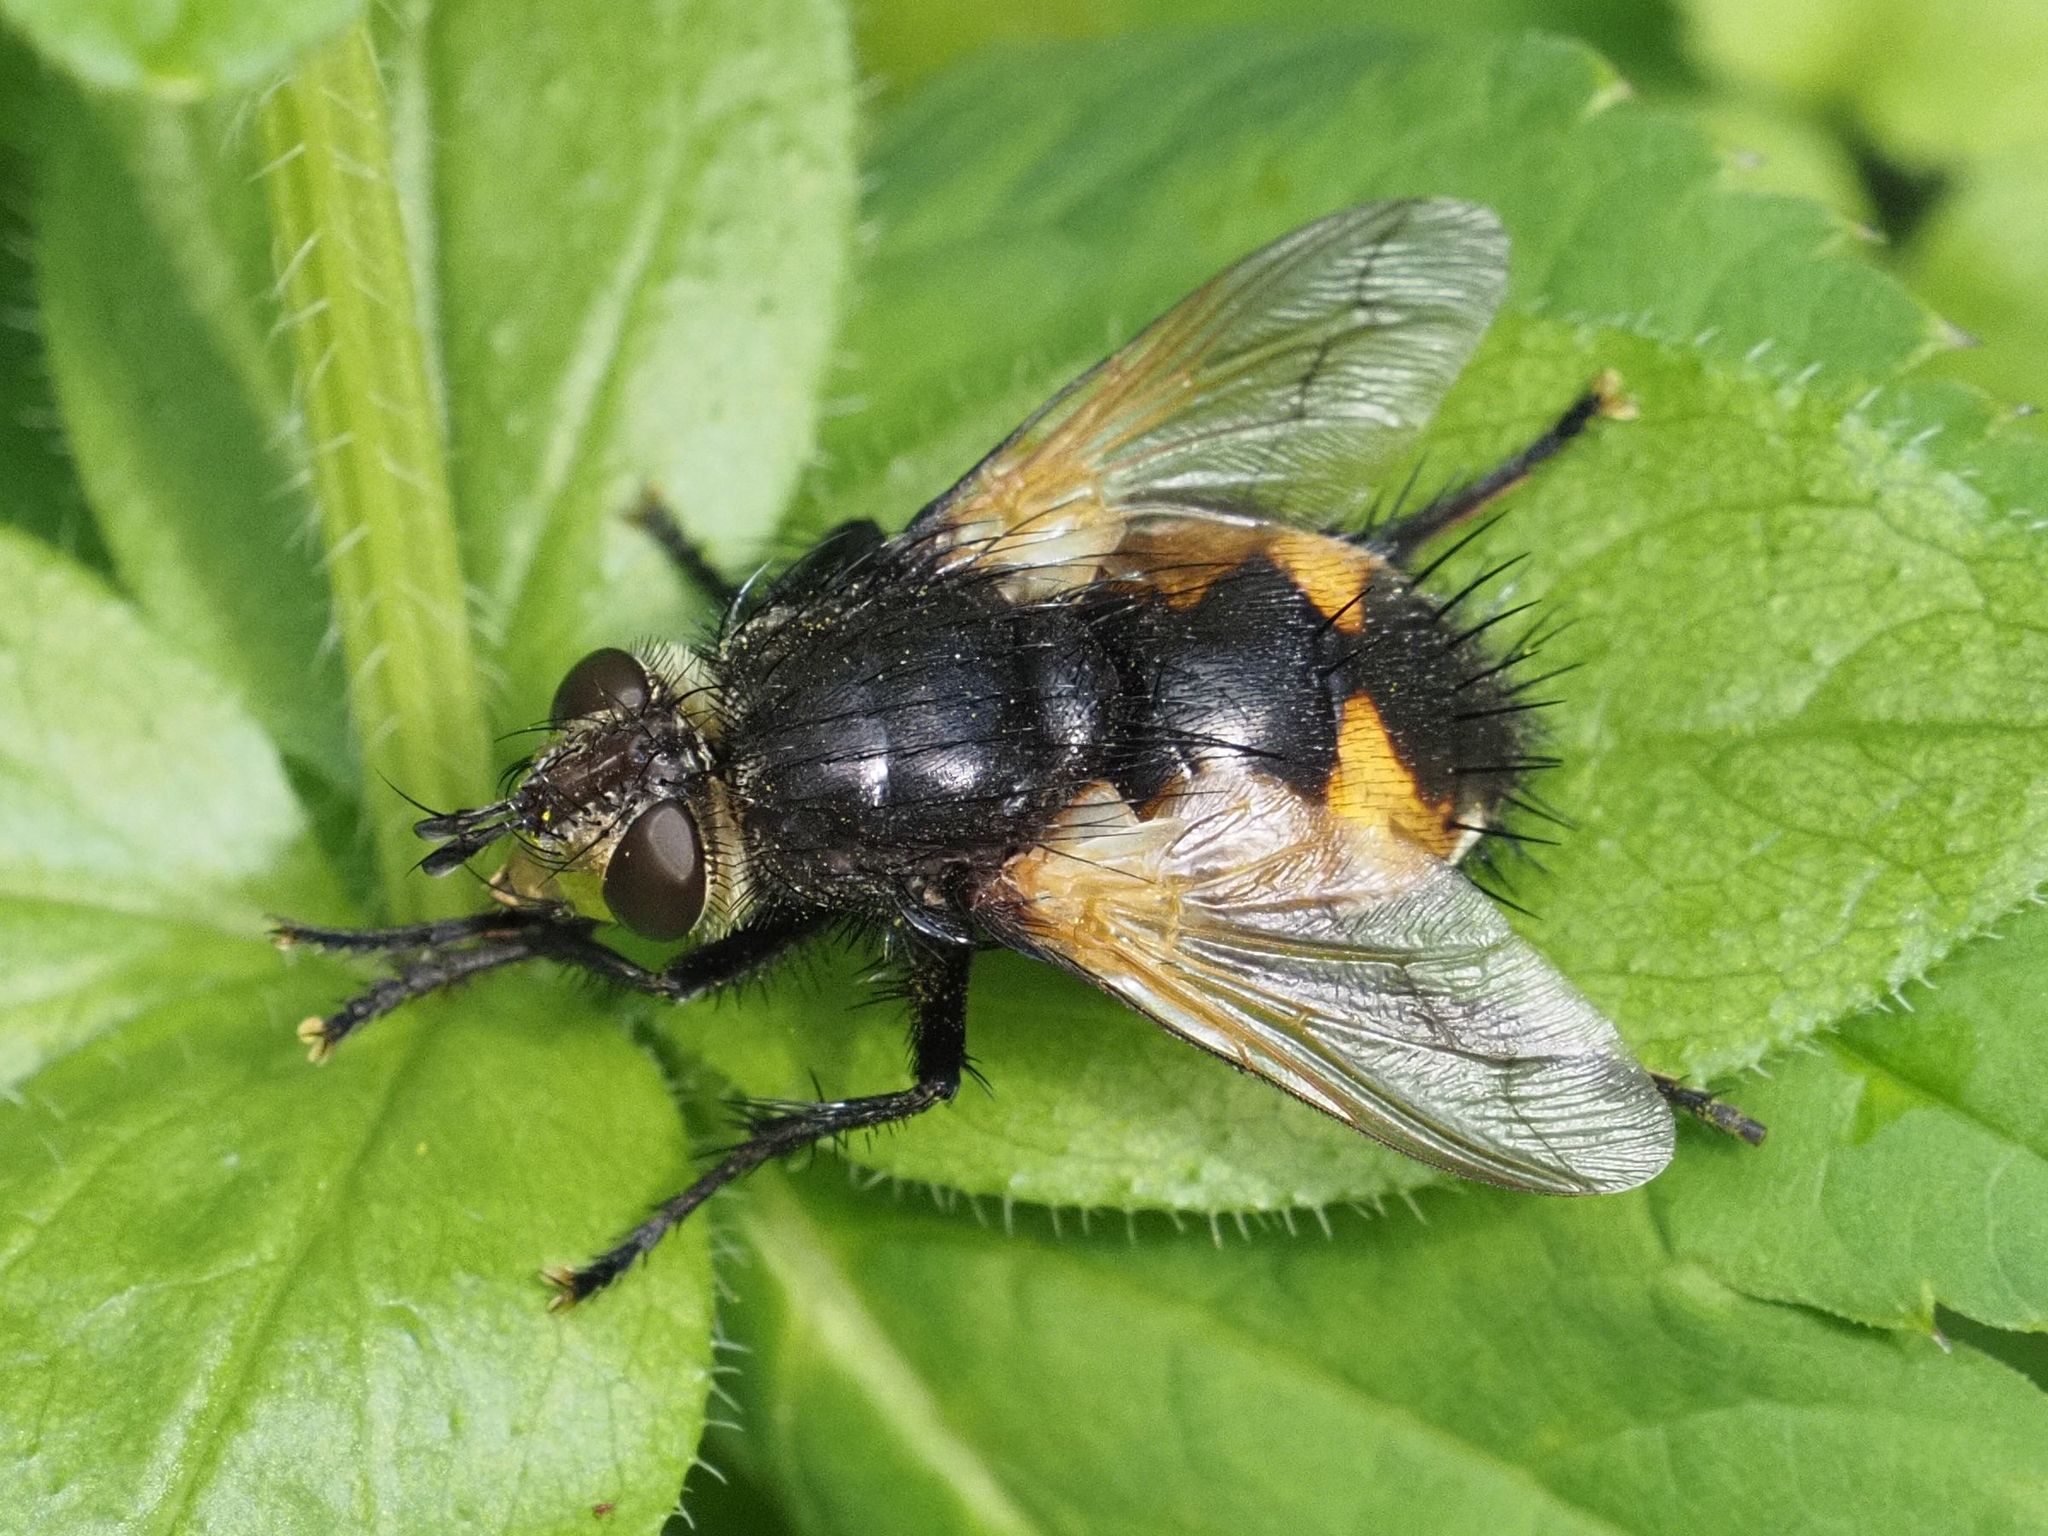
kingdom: Animalia
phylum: Arthropoda
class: Insecta
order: Diptera
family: Tachinidae
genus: Nowickia
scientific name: Nowickia ferox
